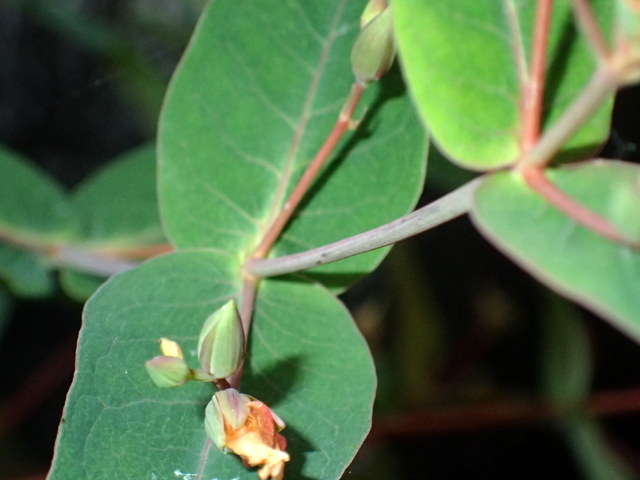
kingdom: Plantae
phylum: Tracheophyta
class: Magnoliopsida
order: Malpighiales
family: Hypericaceae
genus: Triadenum
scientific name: Triadenum virginicum
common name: Marsh st. john's-wort
